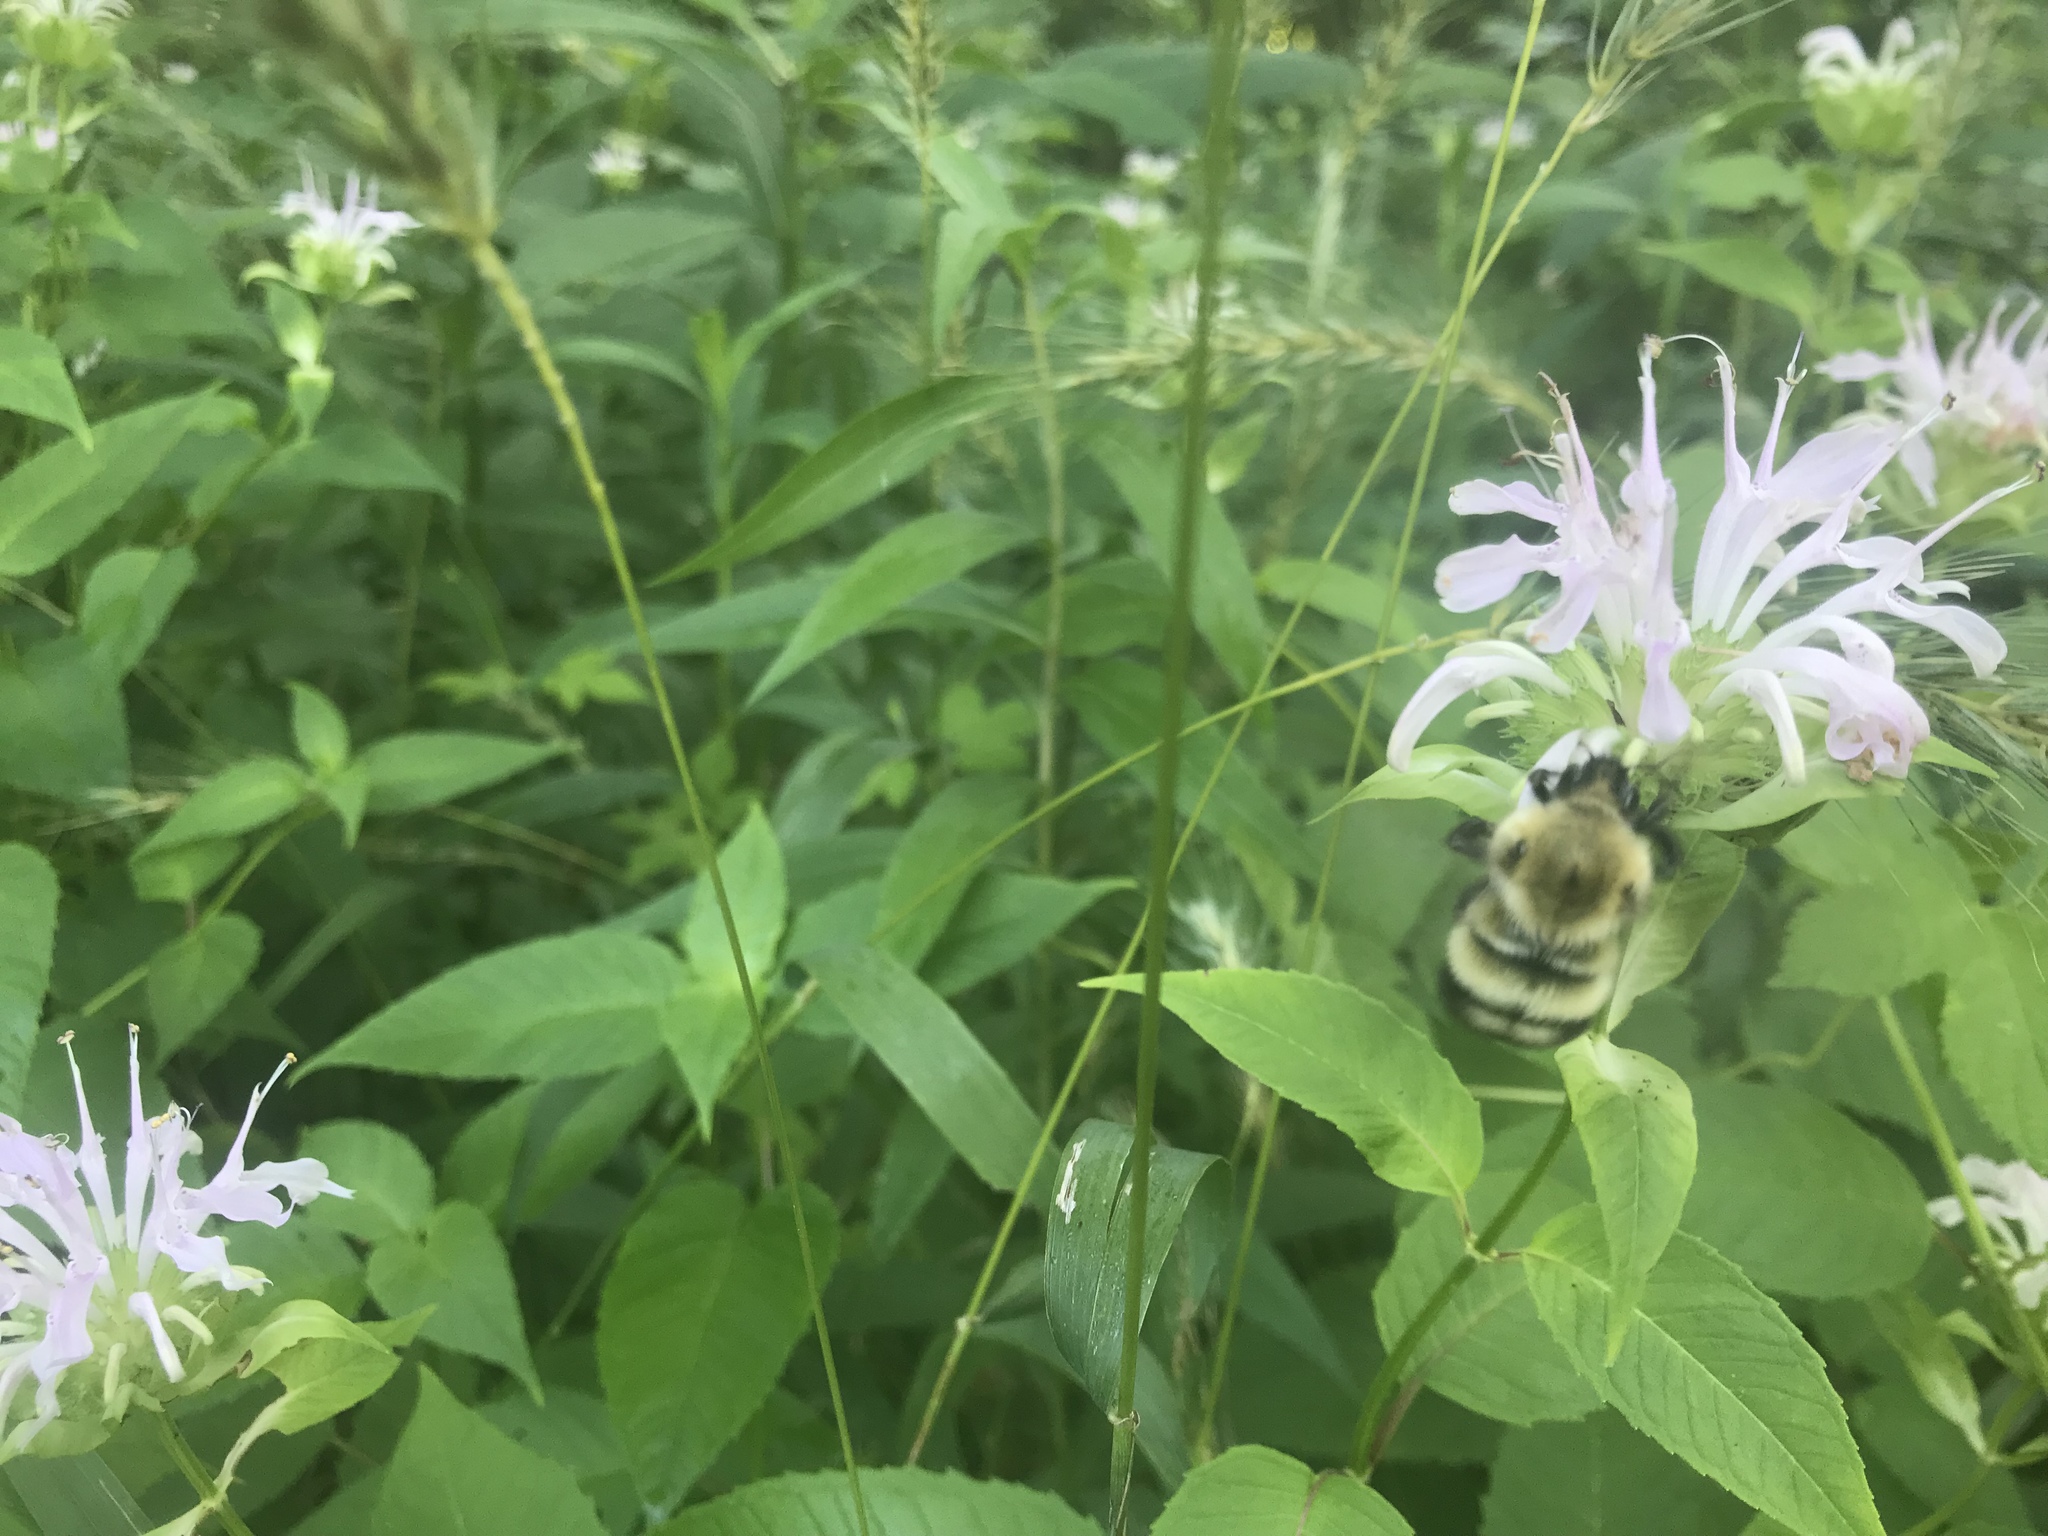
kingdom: Animalia
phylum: Arthropoda
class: Insecta
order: Hymenoptera
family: Apidae
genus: Bombus
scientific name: Bombus perplexus
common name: Confusing bumble bee
